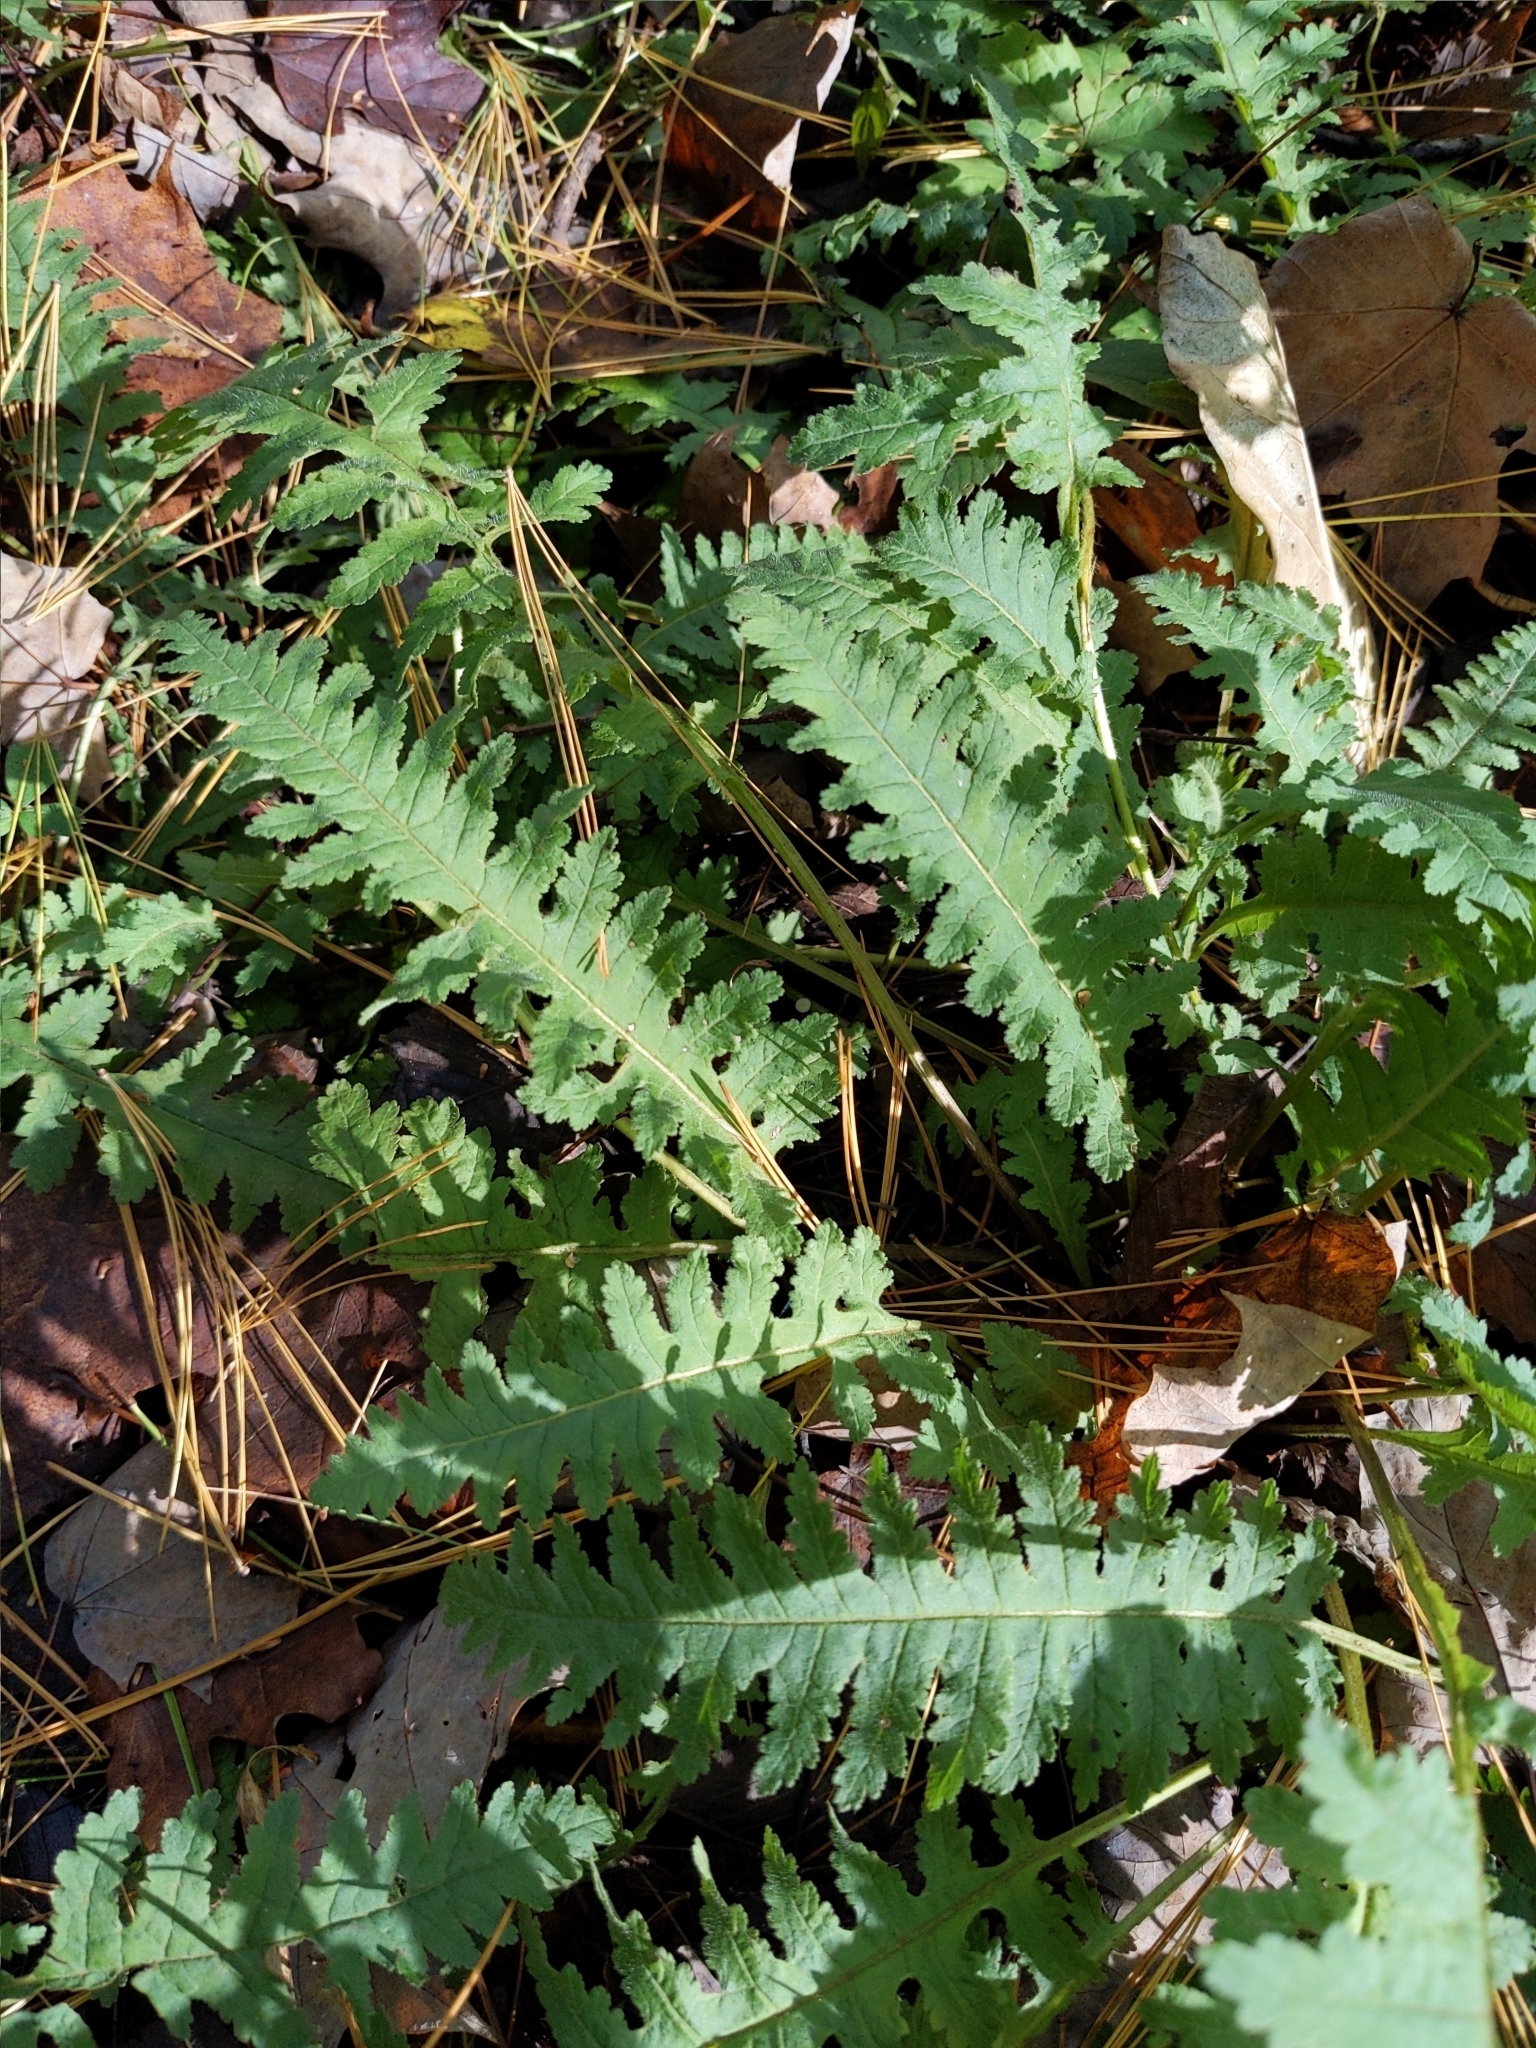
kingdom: Plantae
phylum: Tracheophyta
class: Magnoliopsida
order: Lamiales
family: Orobanchaceae
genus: Pedicularis
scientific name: Pedicularis canadensis
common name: Early lousewort
